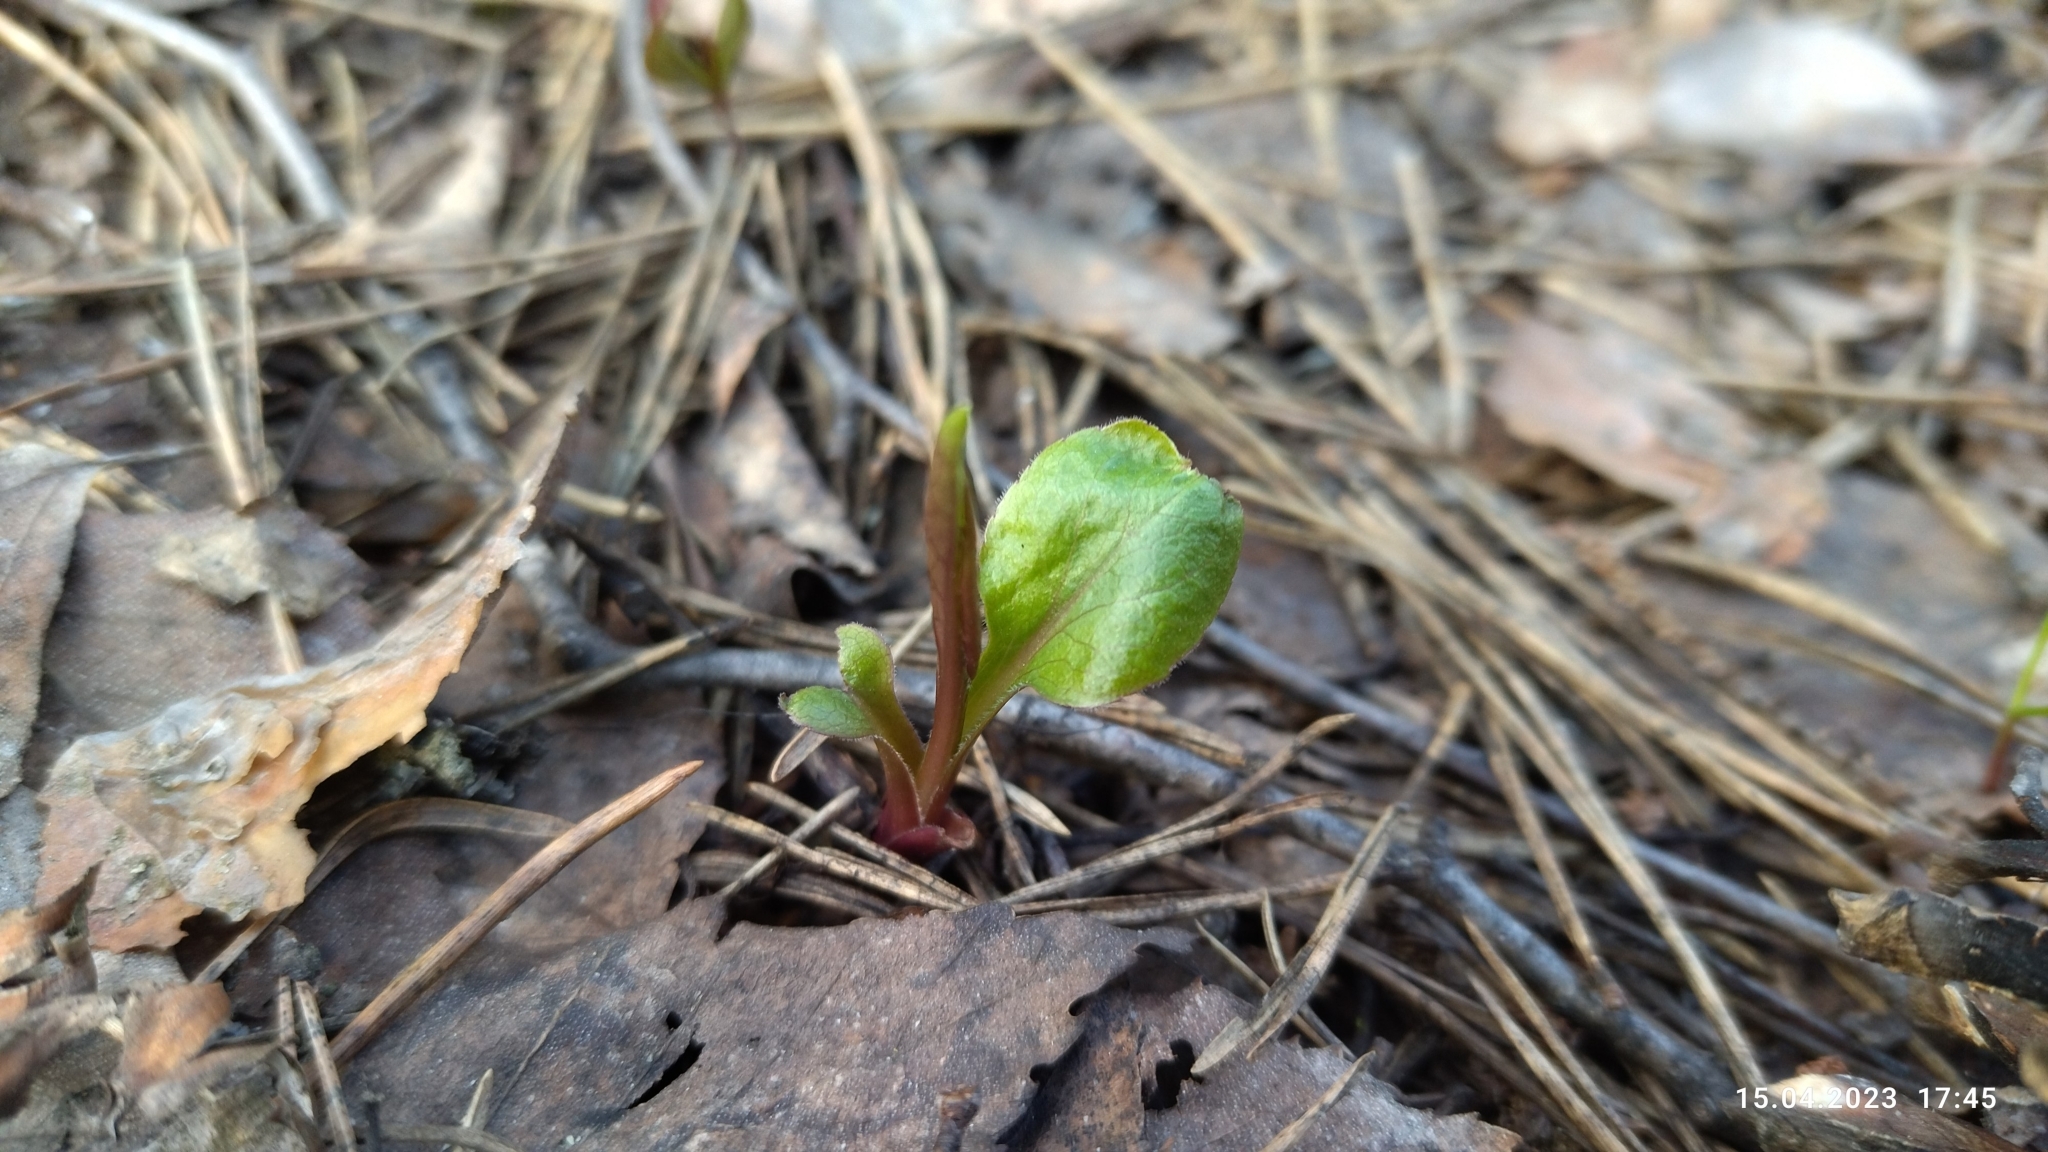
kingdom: Plantae
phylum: Tracheophyta
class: Magnoliopsida
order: Asterales
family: Asteraceae
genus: Solidago
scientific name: Solidago virgaurea
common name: Goldenrod
